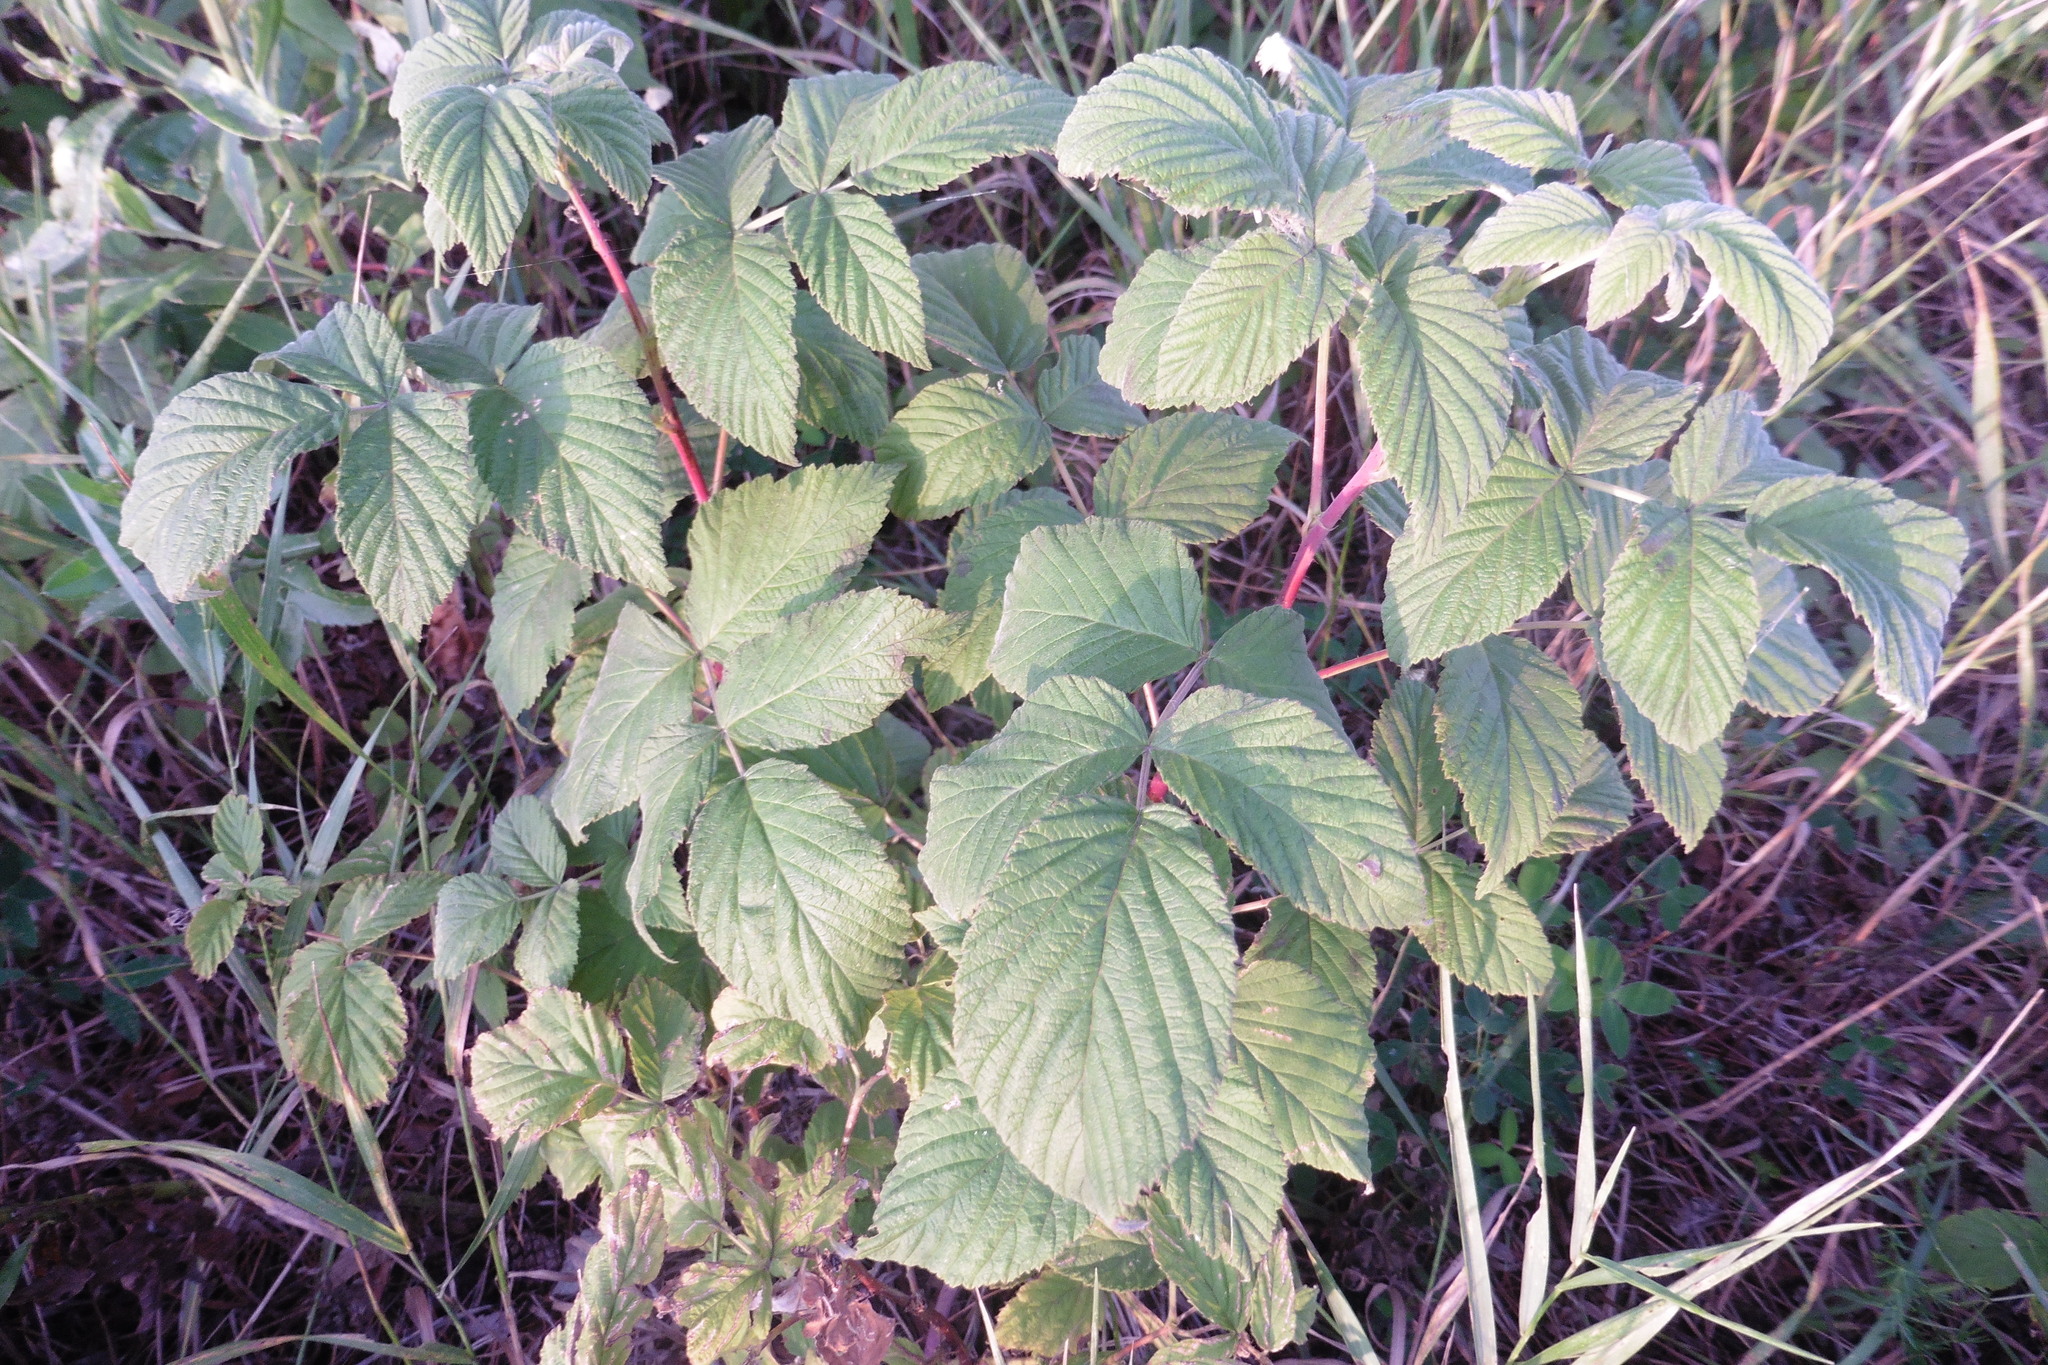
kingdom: Plantae
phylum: Tracheophyta
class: Magnoliopsida
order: Rosales
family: Rosaceae
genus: Rubus
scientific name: Rubus idaeus
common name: Raspberry
